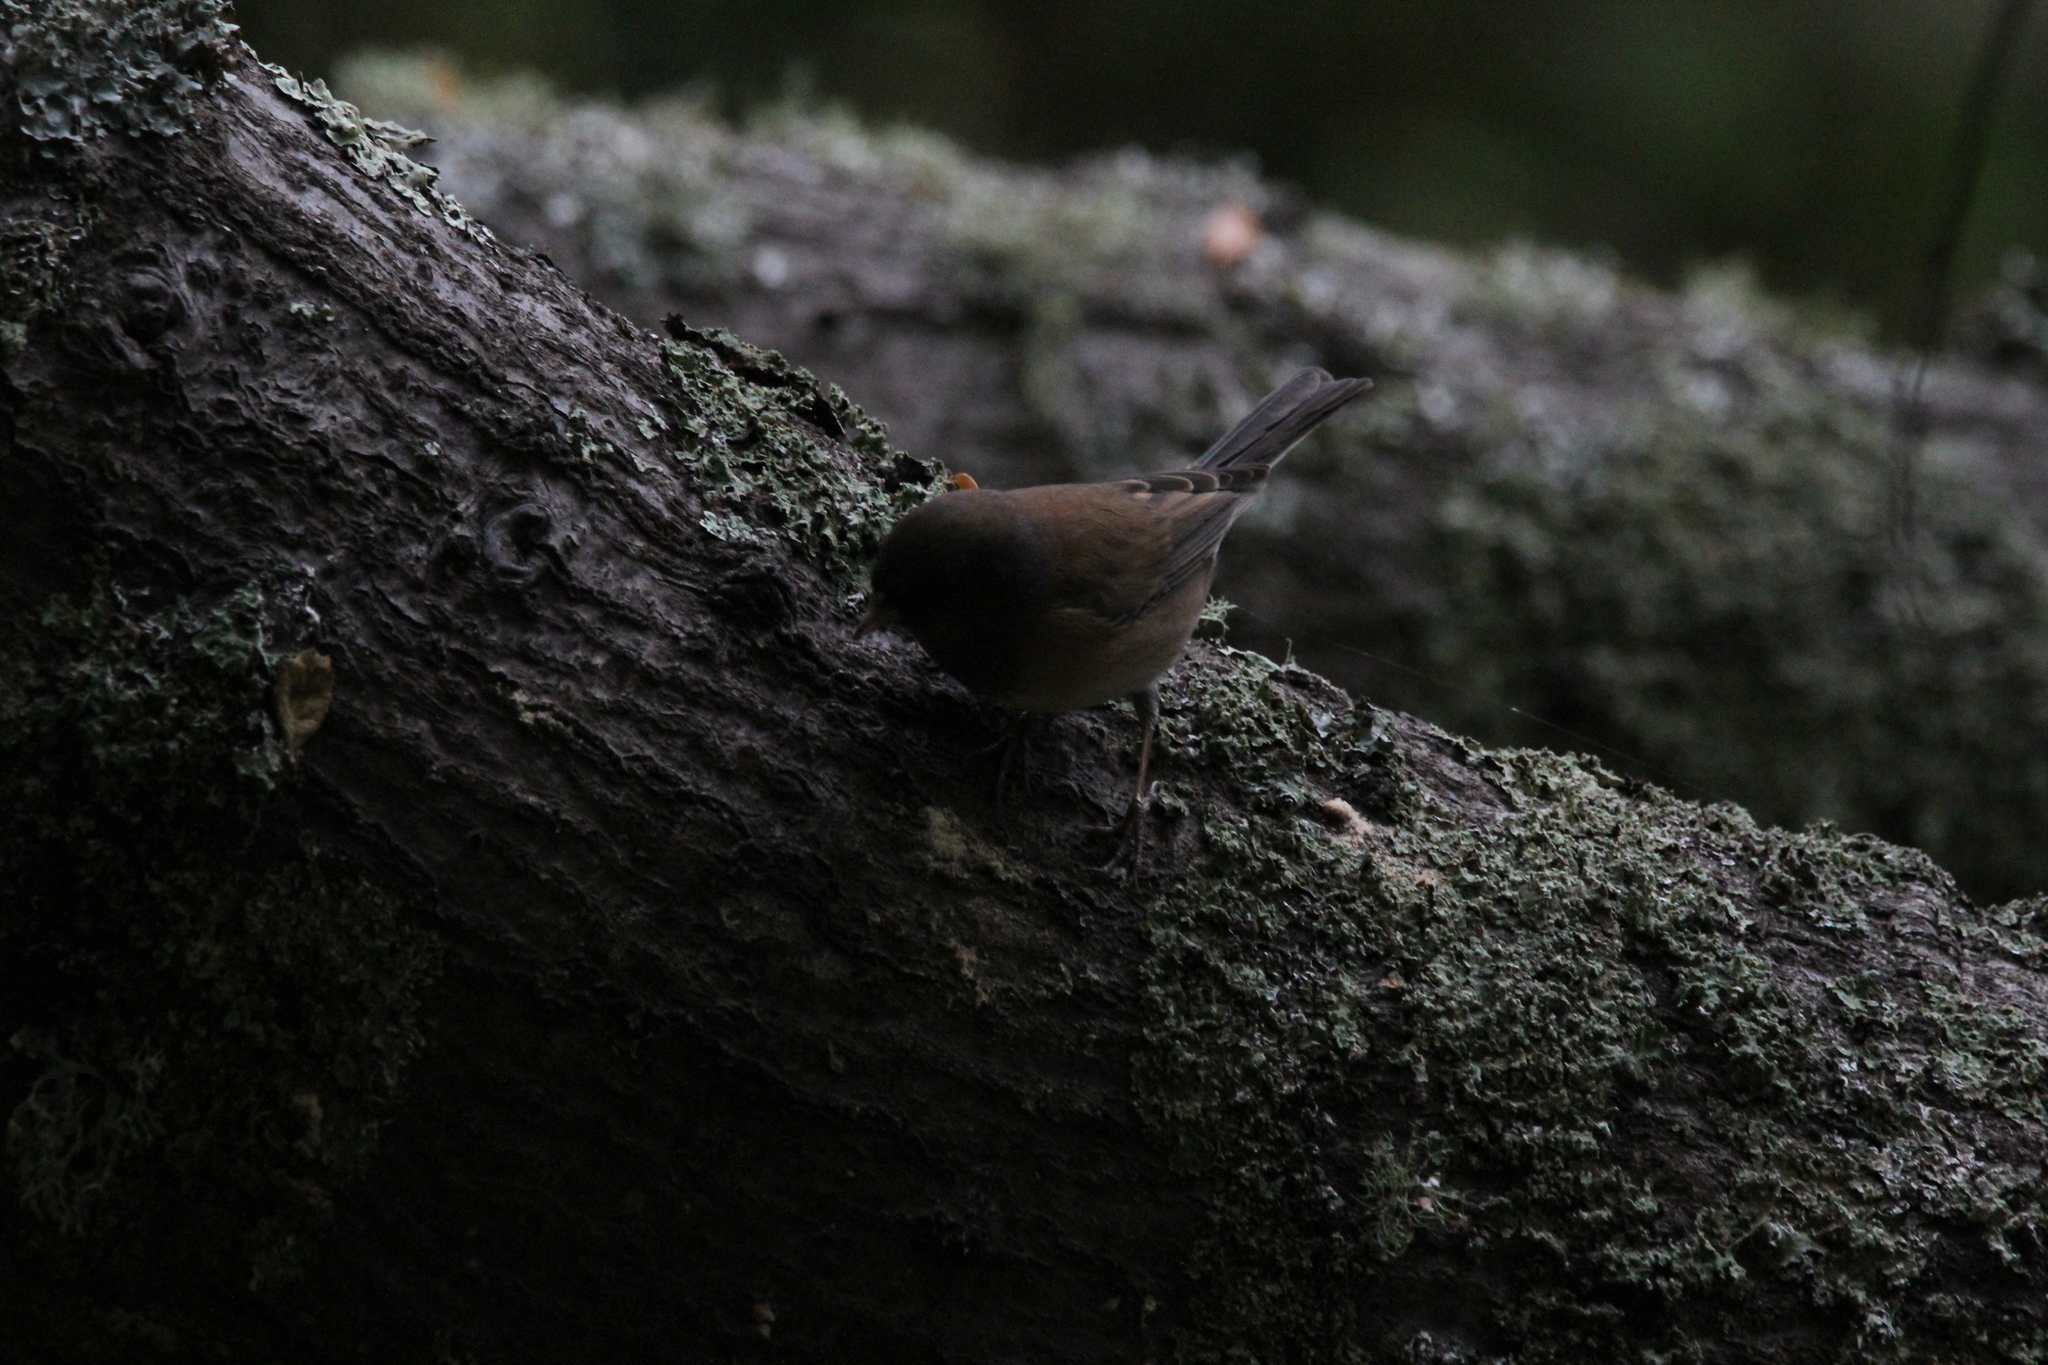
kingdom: Animalia
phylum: Chordata
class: Aves
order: Passeriformes
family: Passerellidae
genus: Junco
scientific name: Junco hyemalis
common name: Dark-eyed junco
